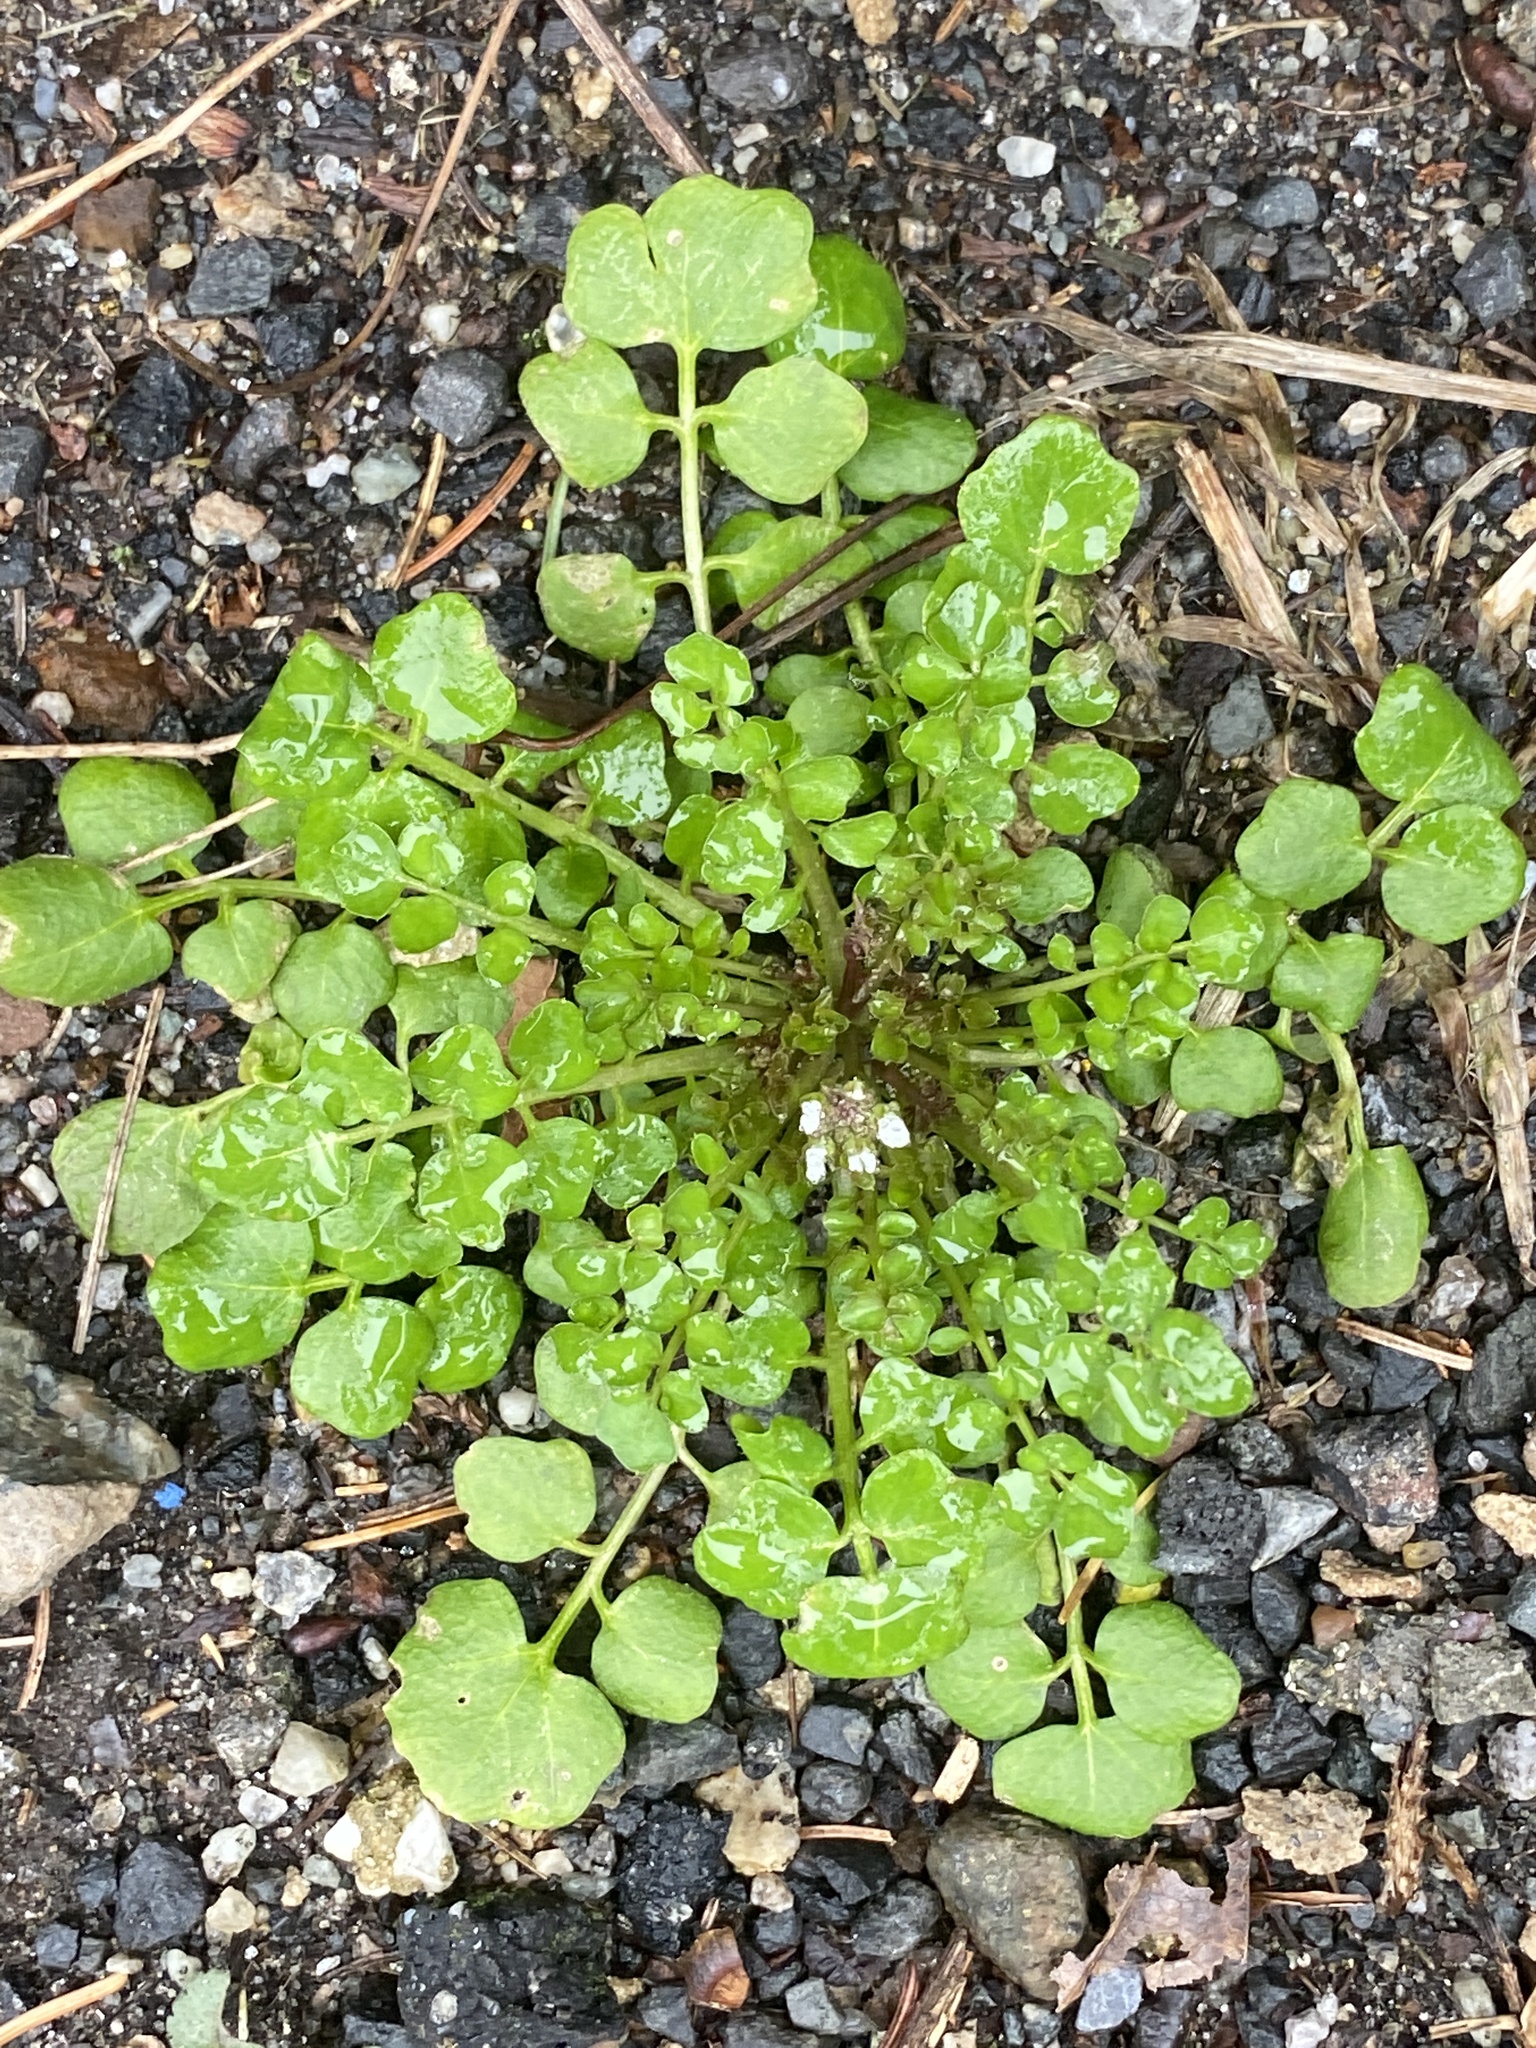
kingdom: Plantae
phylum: Tracheophyta
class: Magnoliopsida
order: Brassicales
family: Brassicaceae
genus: Cardamine
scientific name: Cardamine hirsuta
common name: Hairy bittercress
